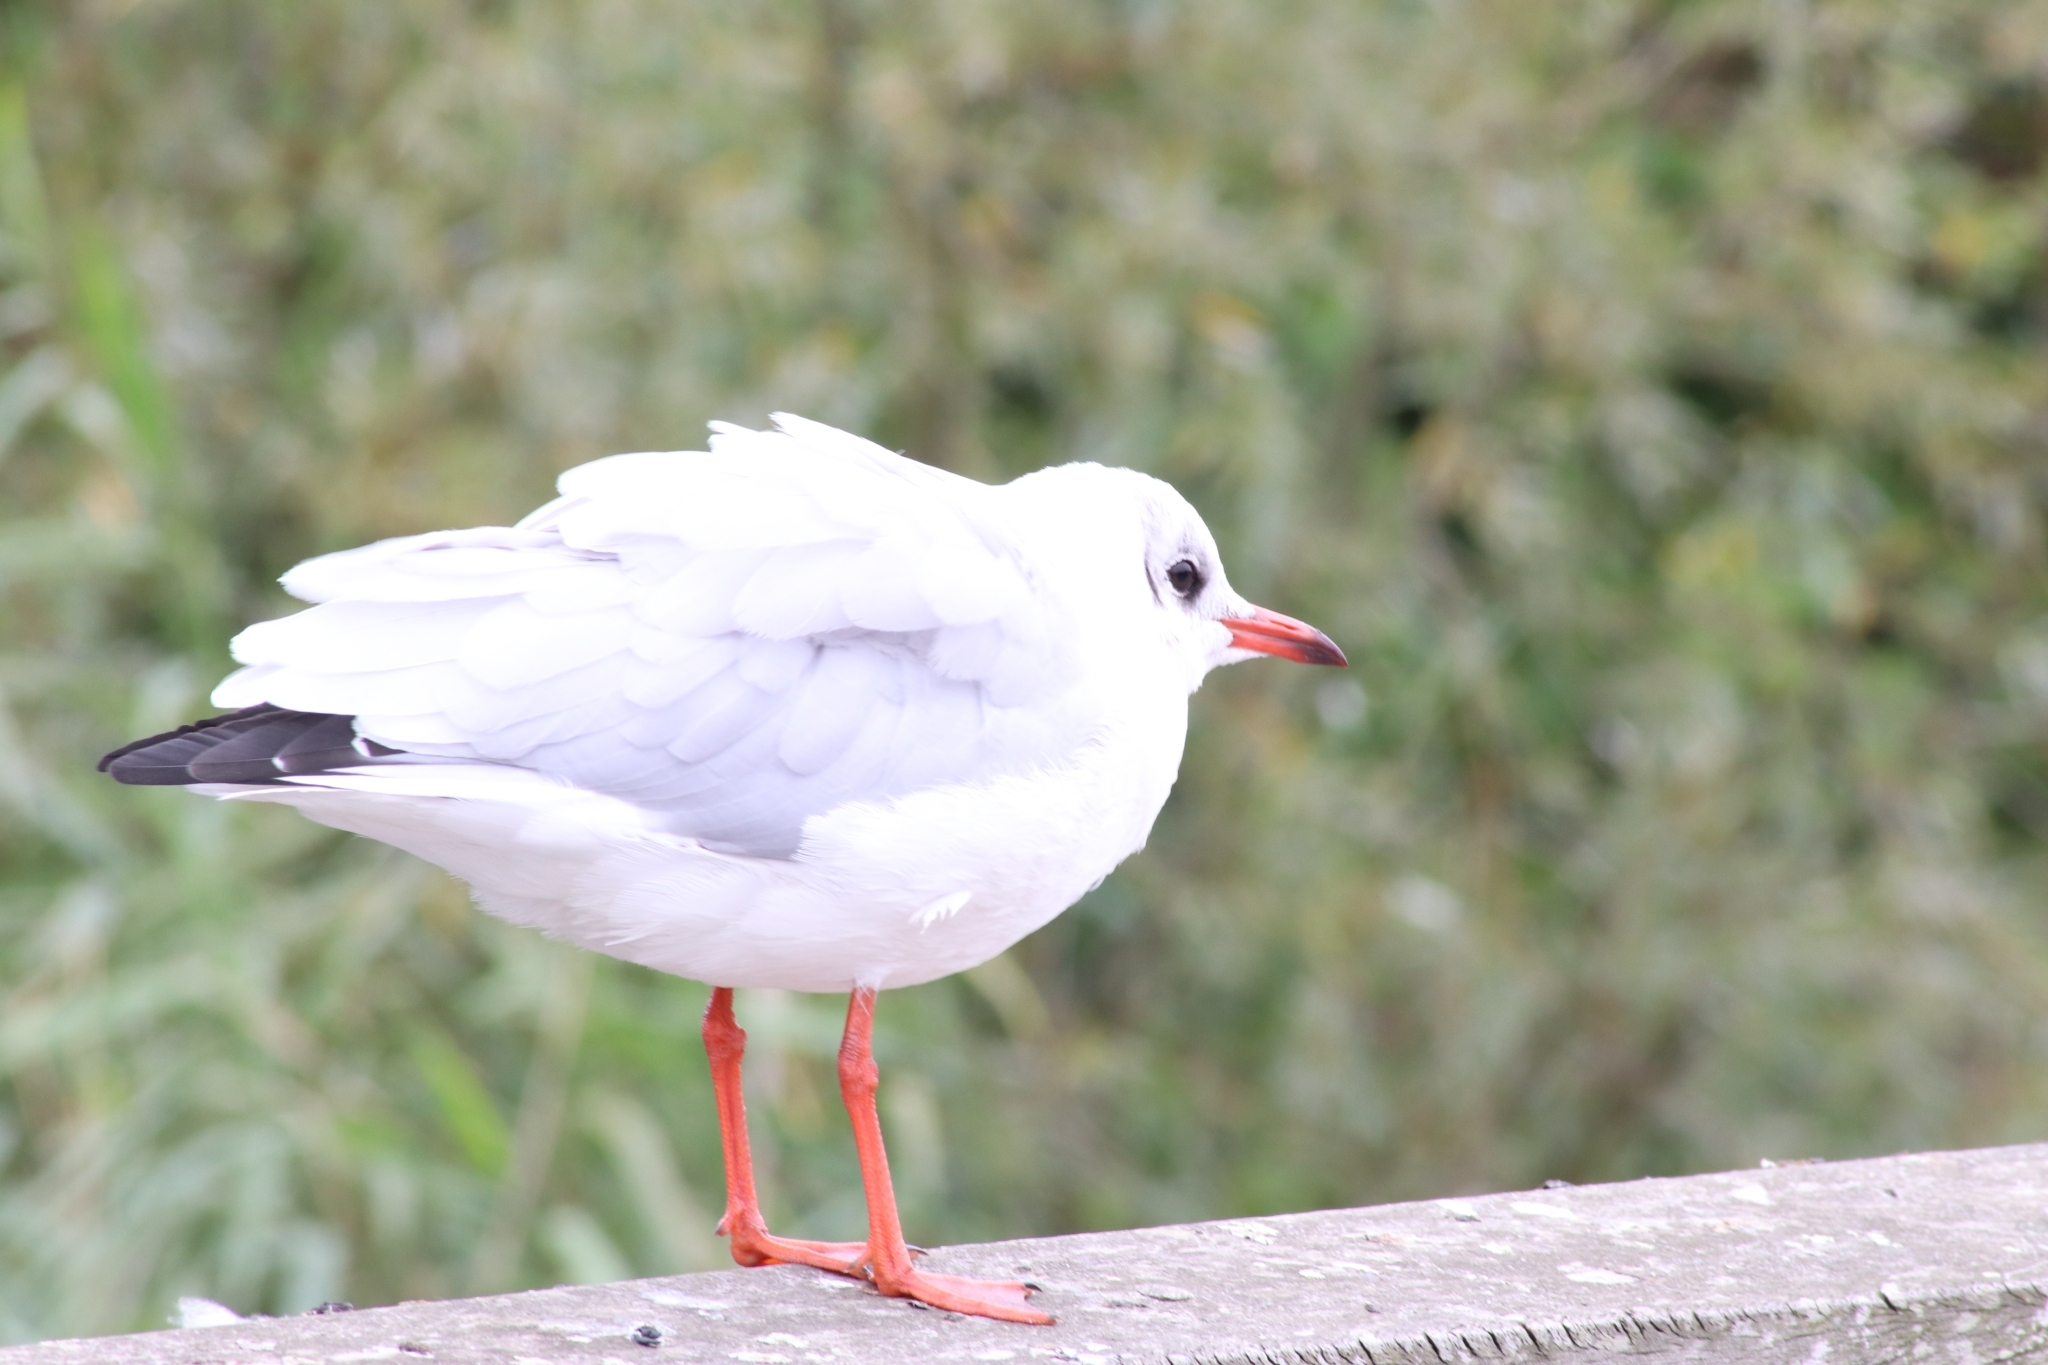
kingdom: Animalia
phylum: Chordata
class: Aves
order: Charadriiformes
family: Laridae
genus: Chroicocephalus
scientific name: Chroicocephalus ridibundus
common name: Black-headed gull
